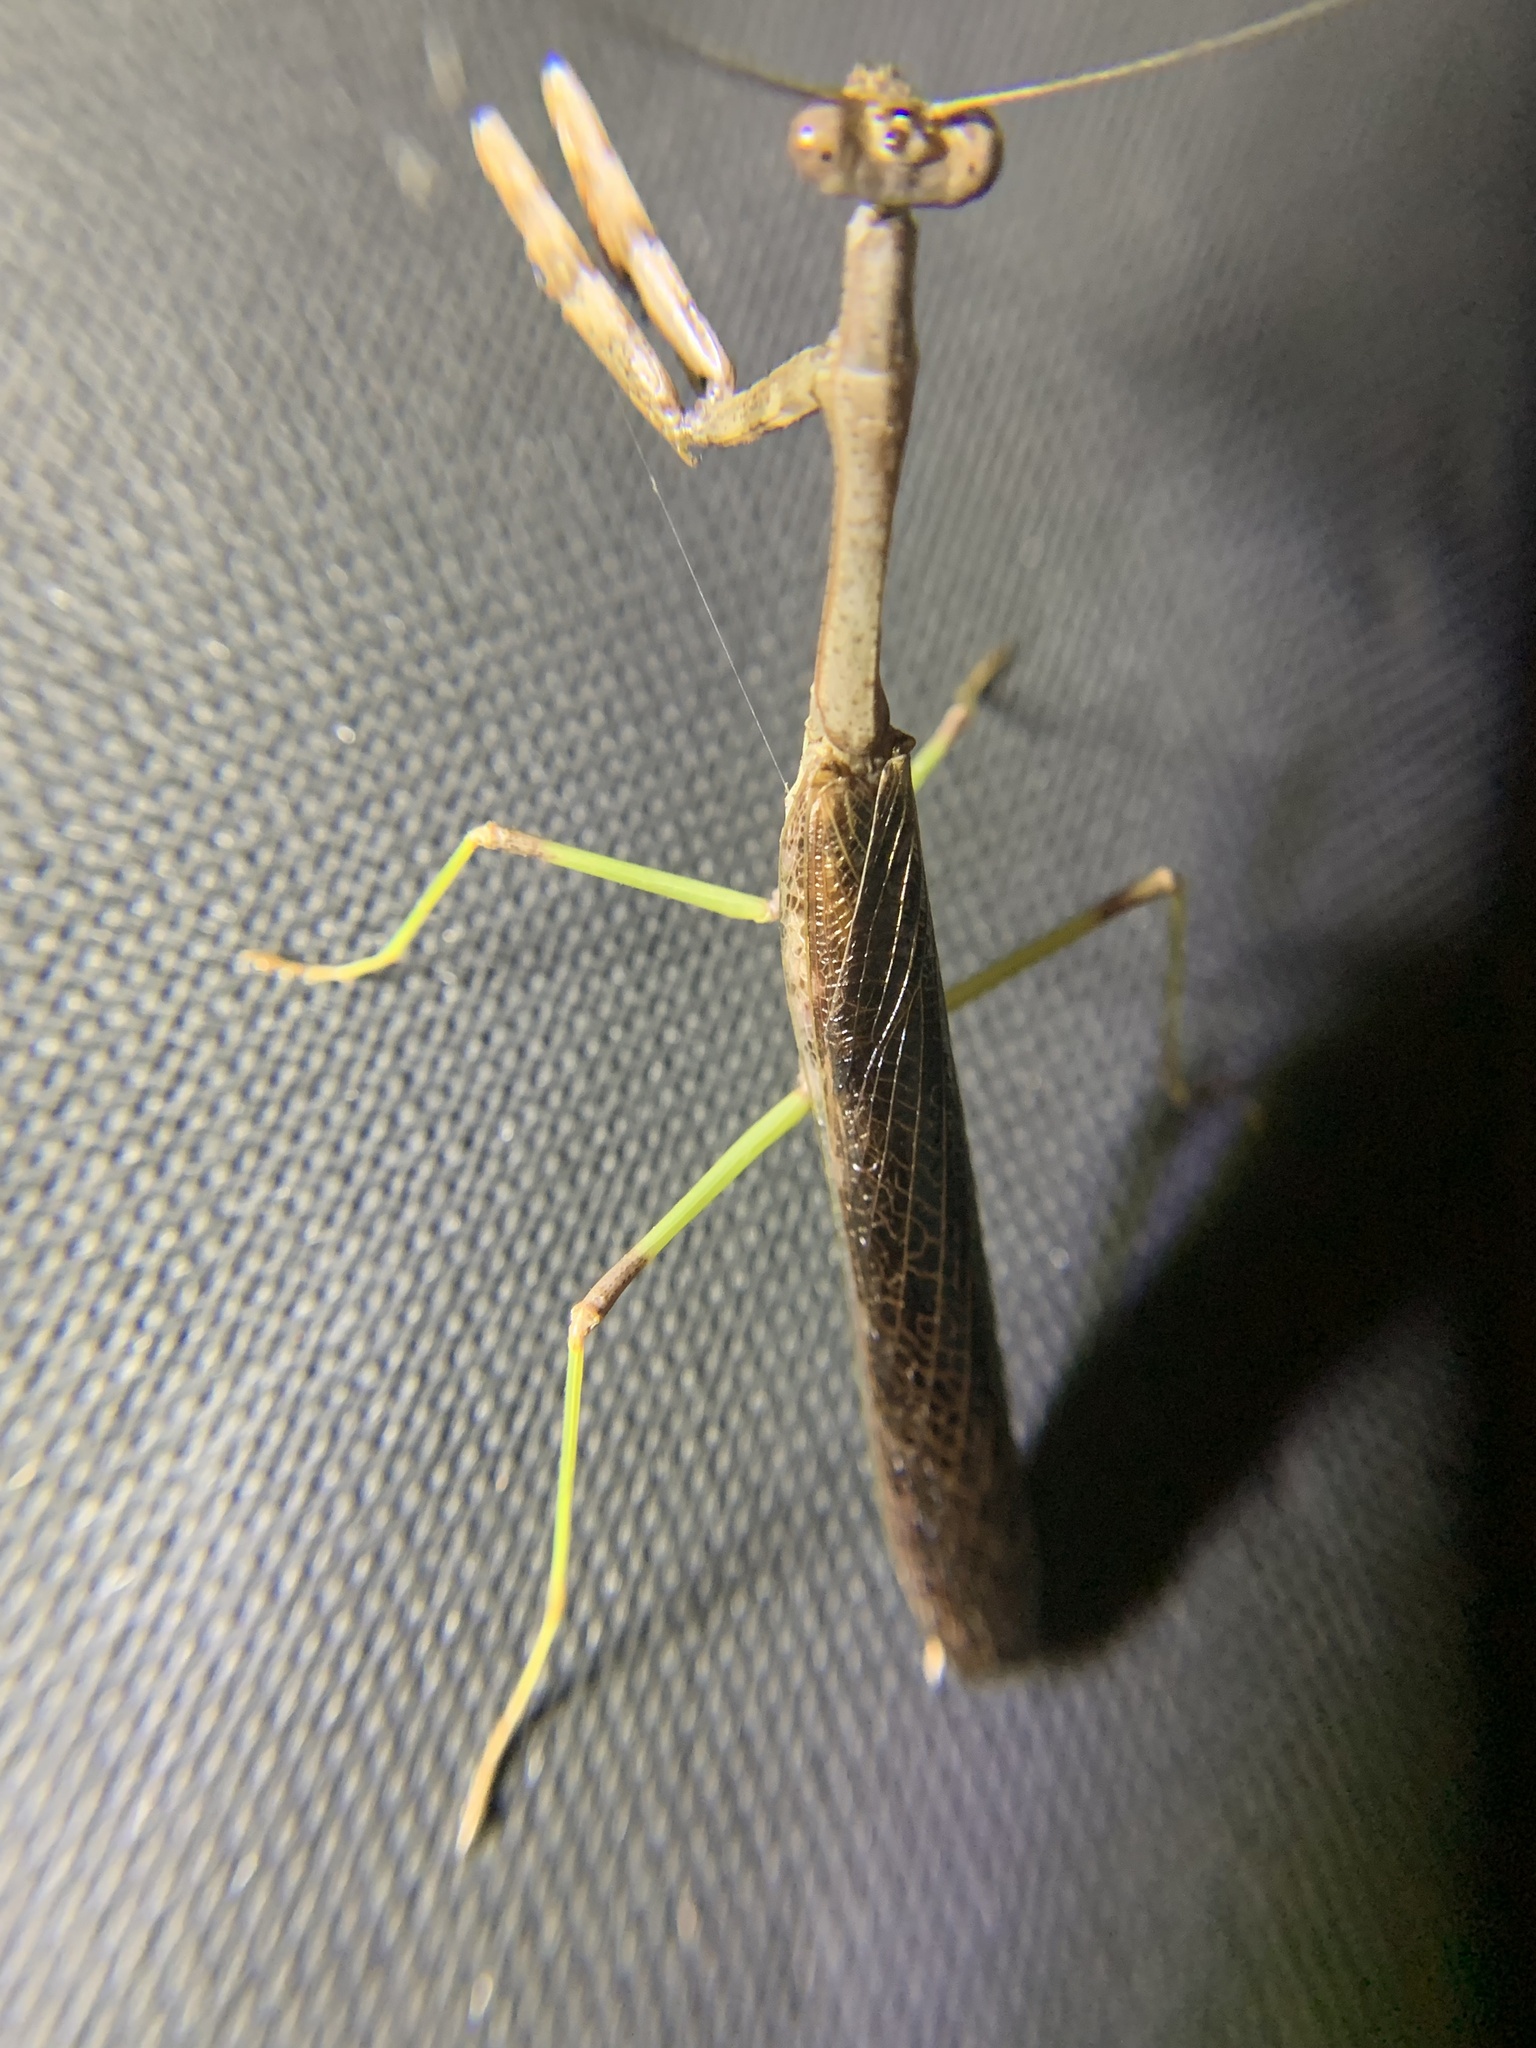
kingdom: Animalia
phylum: Arthropoda
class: Insecta
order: Mantodea
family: Mantidae
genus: Stagmomantis
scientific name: Stagmomantis carolina
